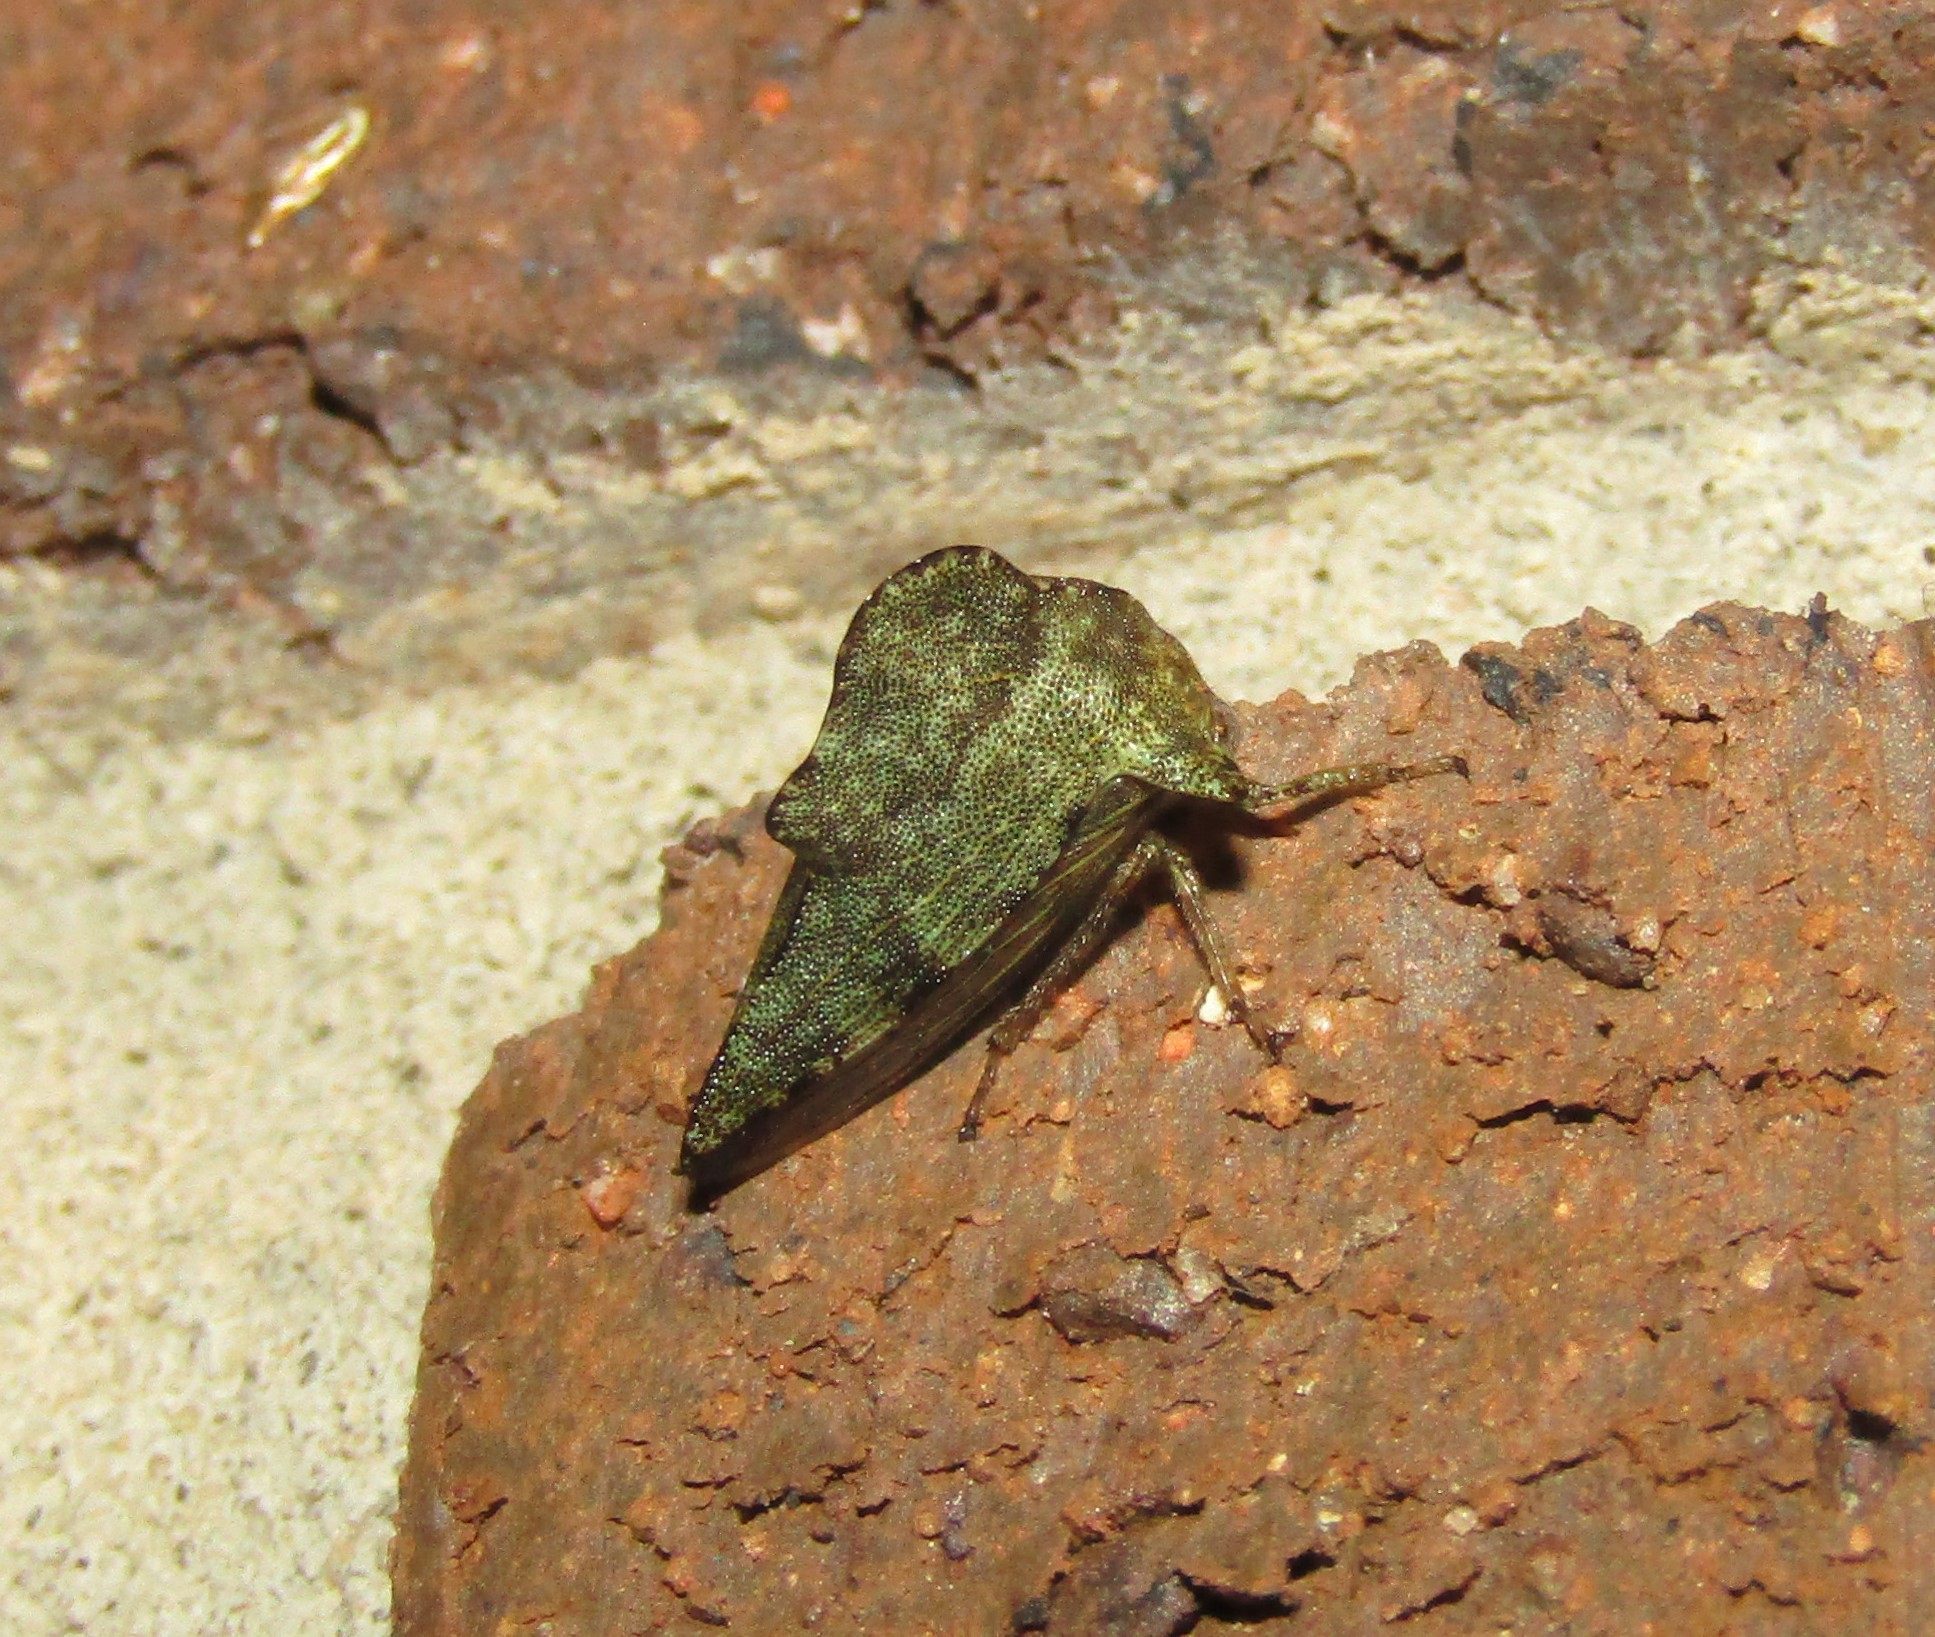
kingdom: Animalia
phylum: Arthropoda
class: Insecta
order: Hemiptera
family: Membracidae
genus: Heliria
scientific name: Heliria cornutula
